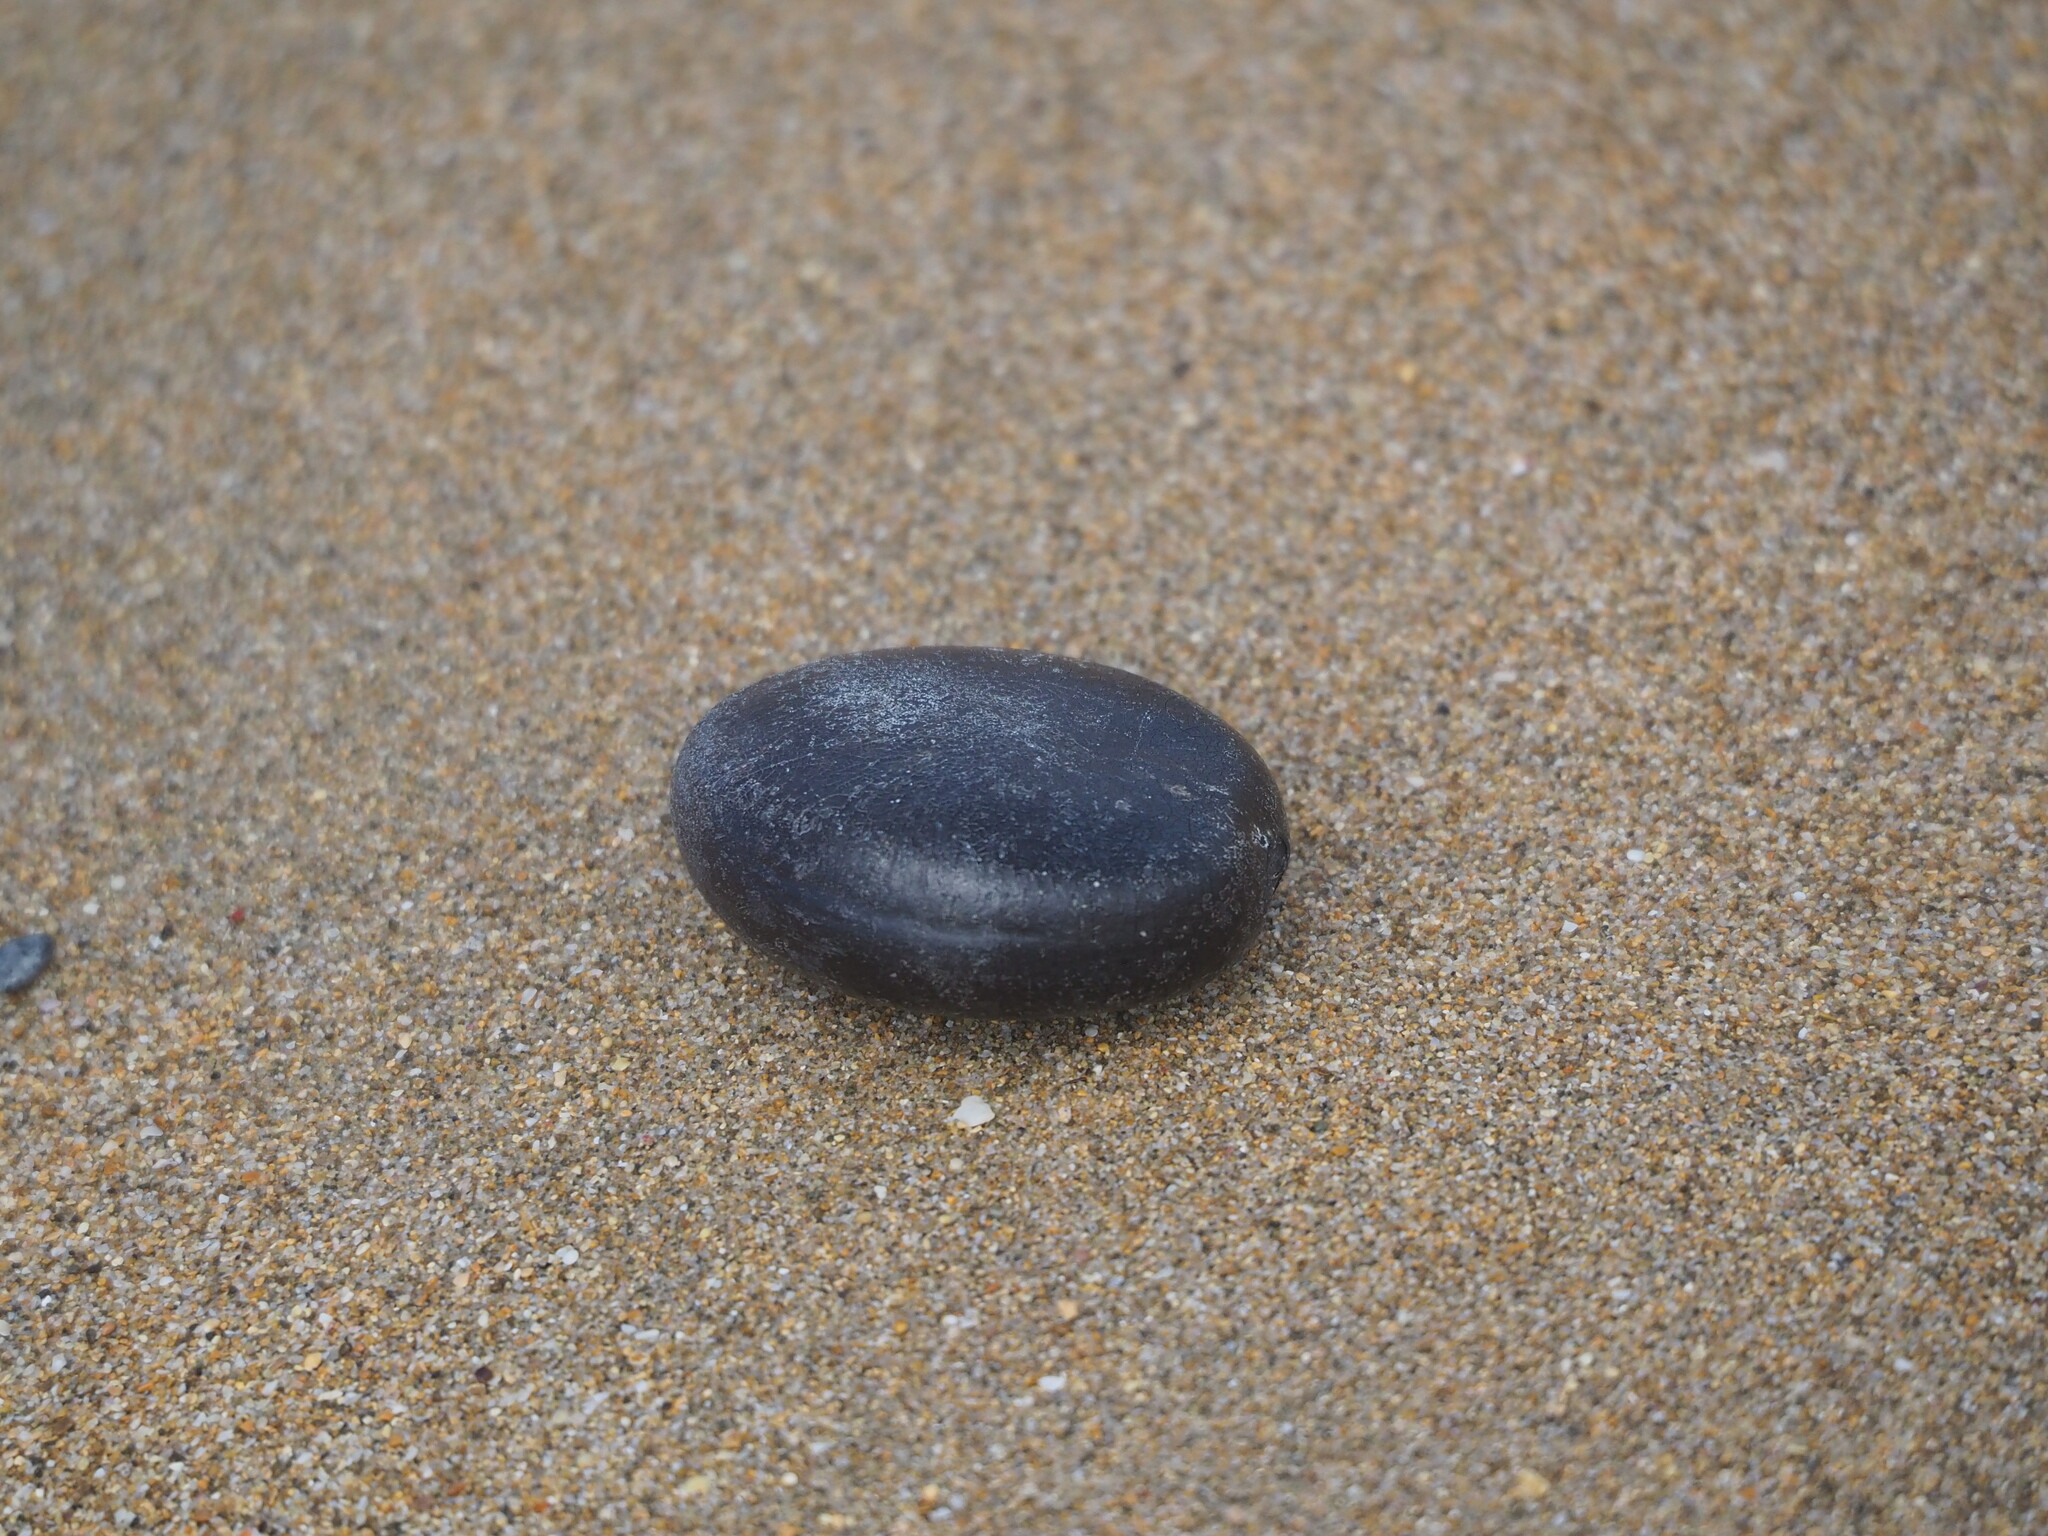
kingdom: Plantae
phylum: Tracheophyta
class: Magnoliopsida
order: Fabales
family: Fabaceae
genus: Entada
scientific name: Entada rheedei
